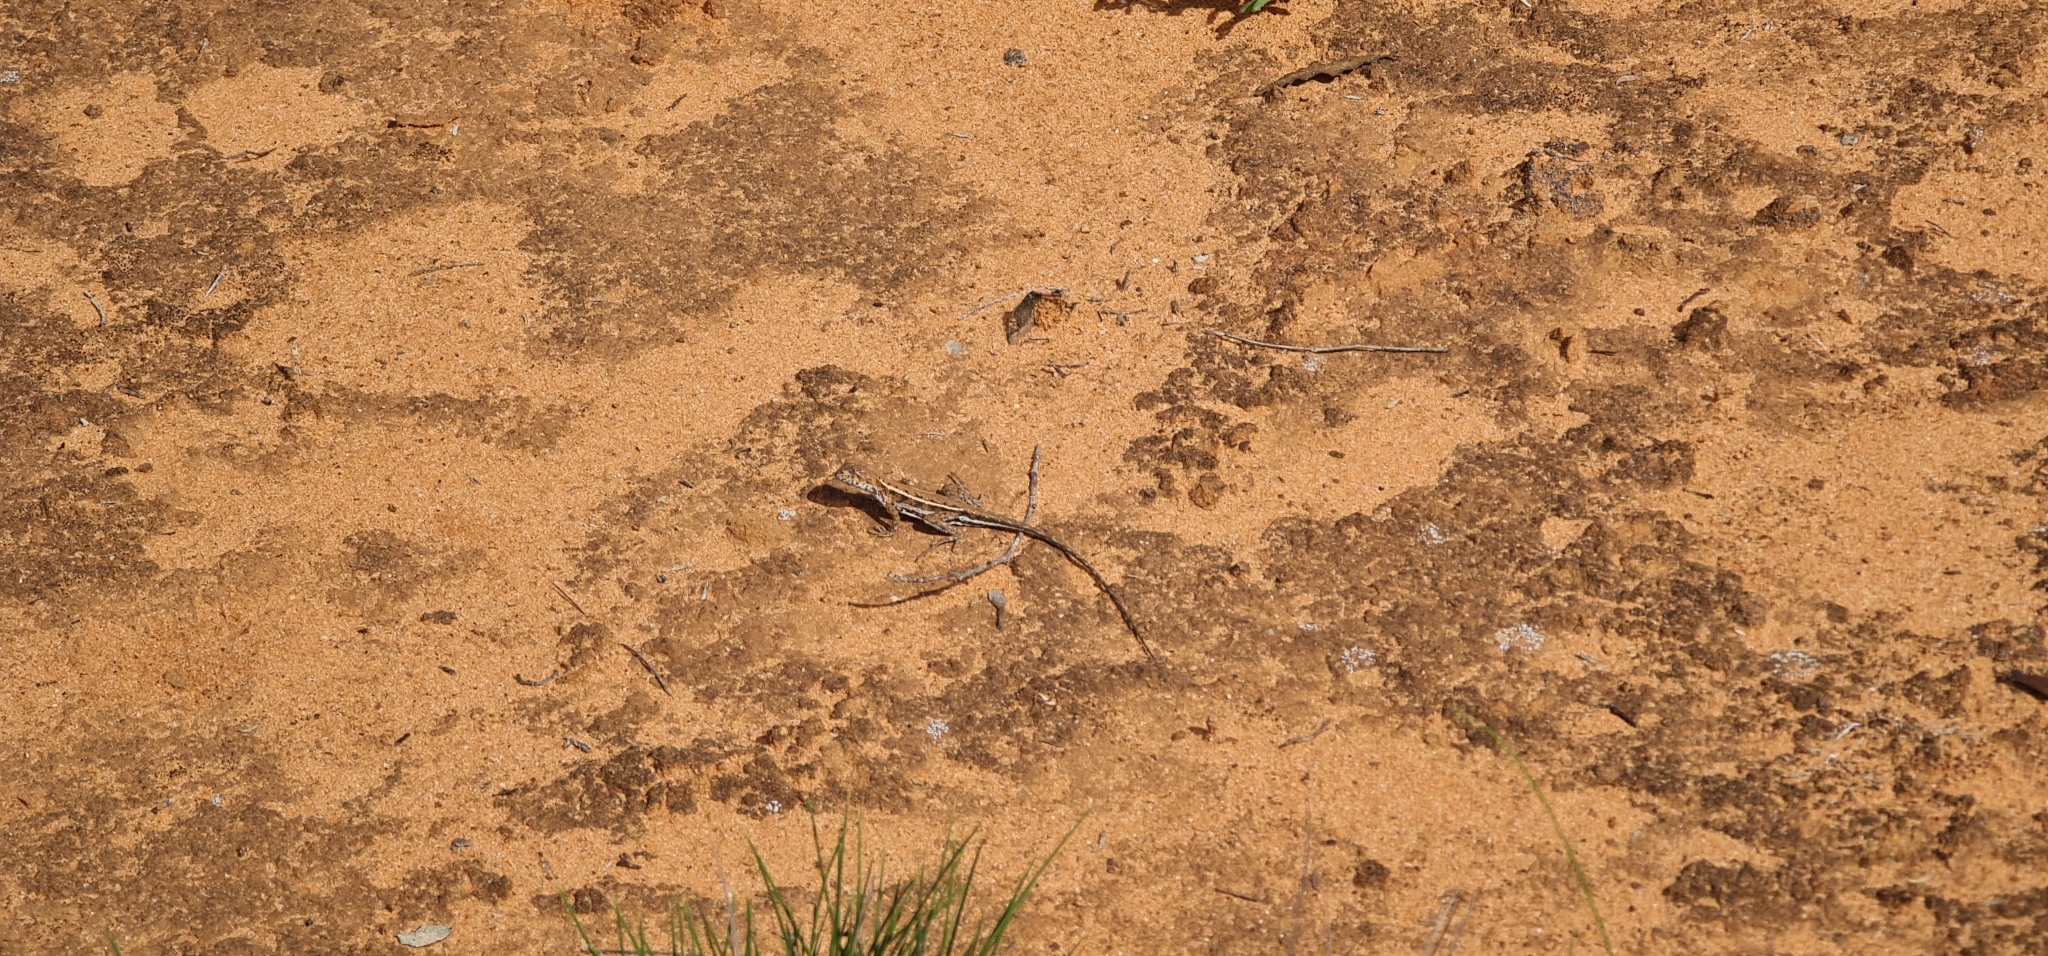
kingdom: Animalia
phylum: Chordata
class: Squamata
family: Agamidae
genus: Ctenophorus
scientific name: Ctenophorus spinodomus
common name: Eastern mallee dragon
